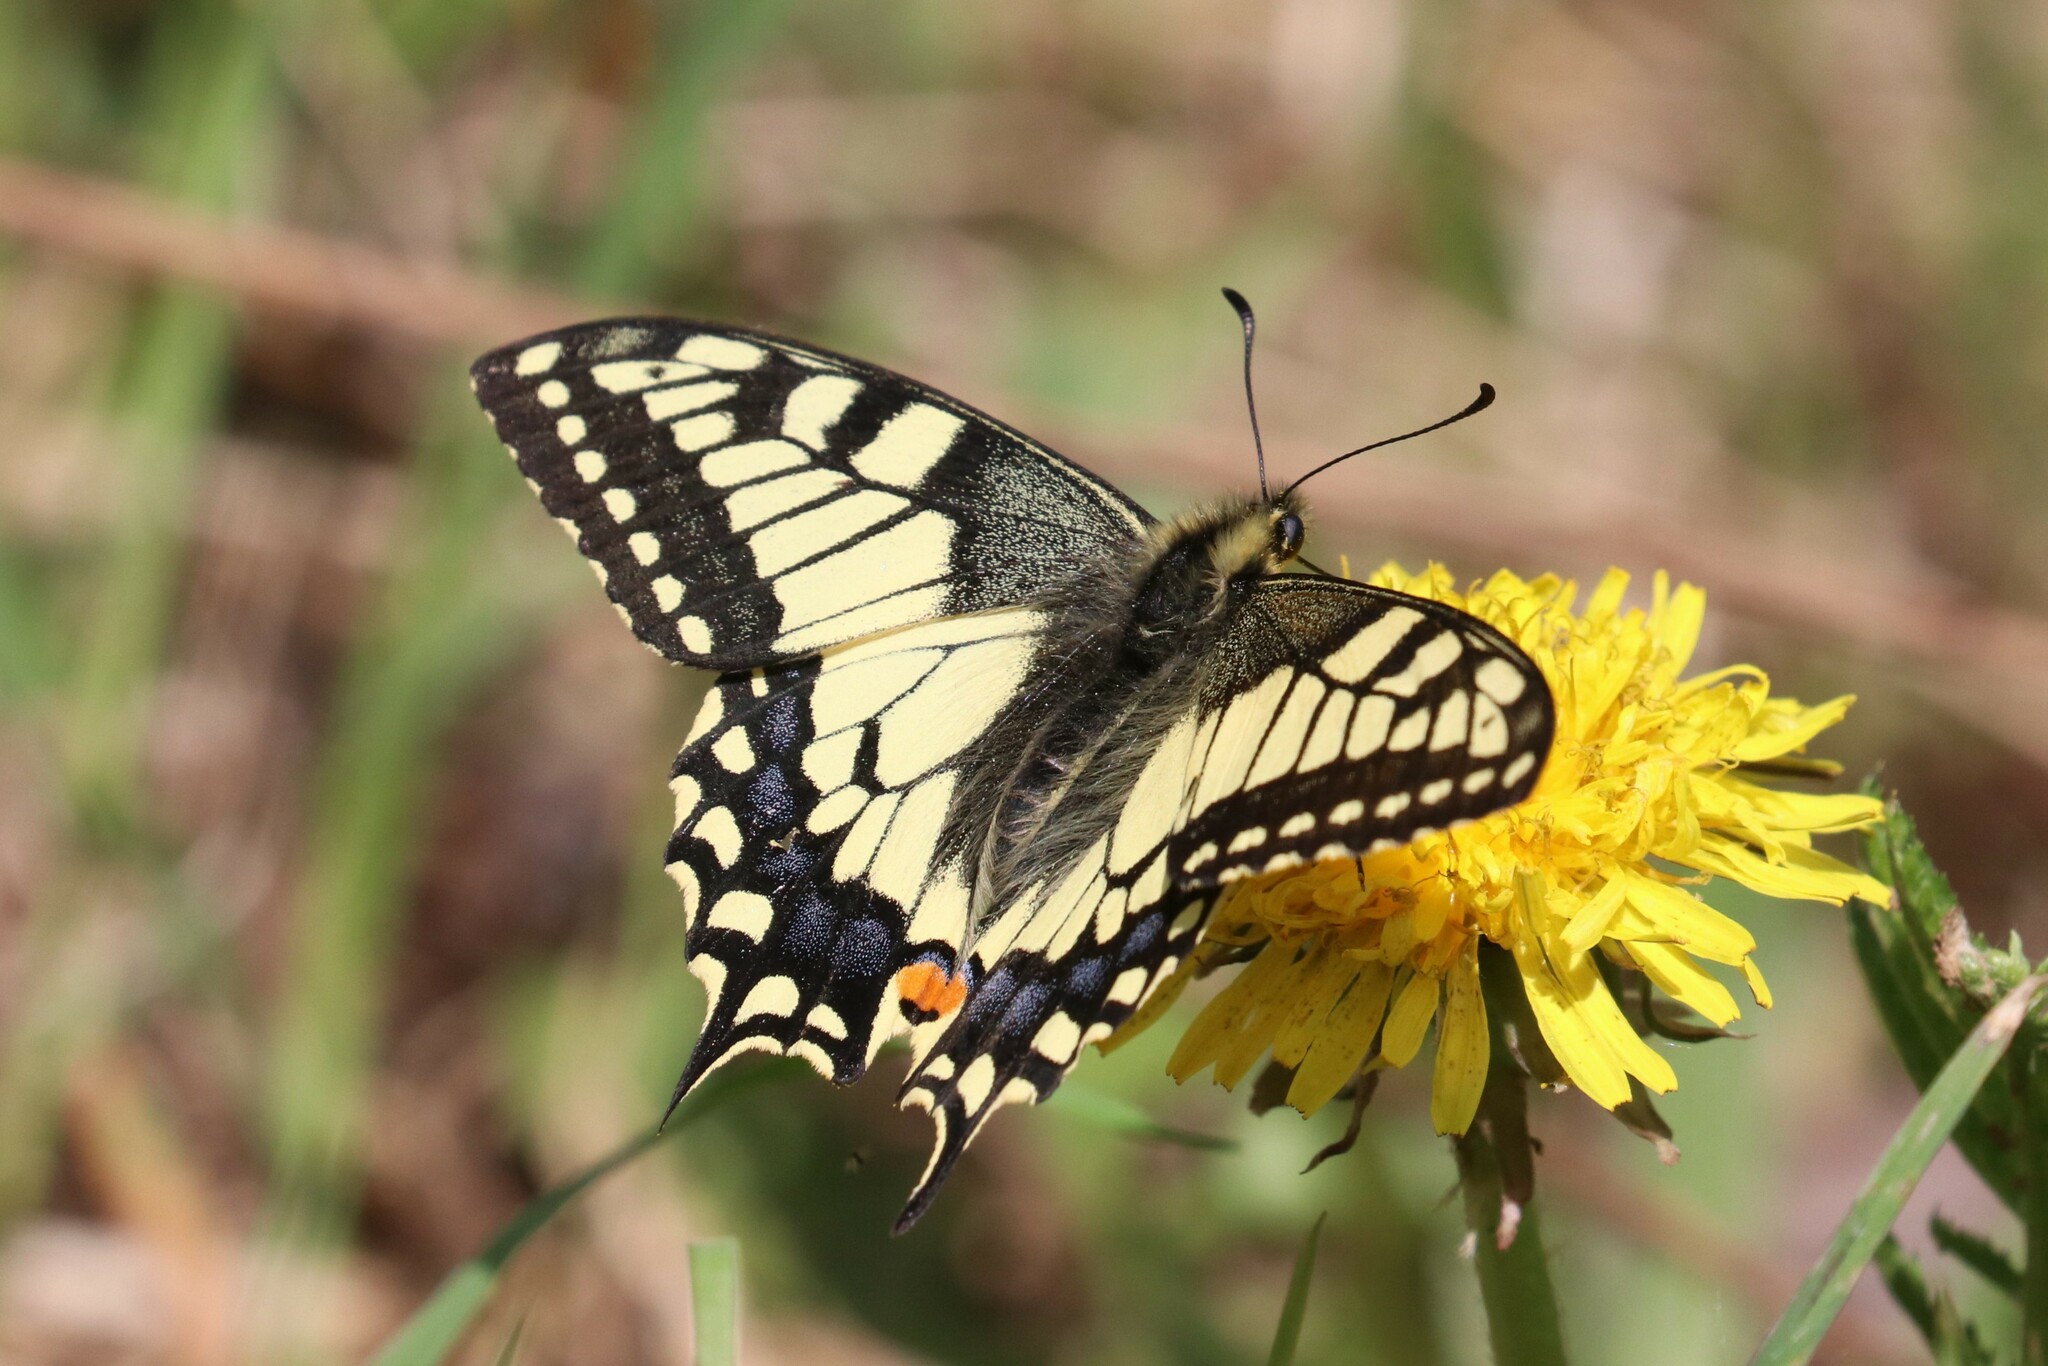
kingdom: Animalia
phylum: Arthropoda
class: Insecta
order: Lepidoptera
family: Papilionidae
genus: Papilio
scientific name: Papilio machaon
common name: Swallowtail
